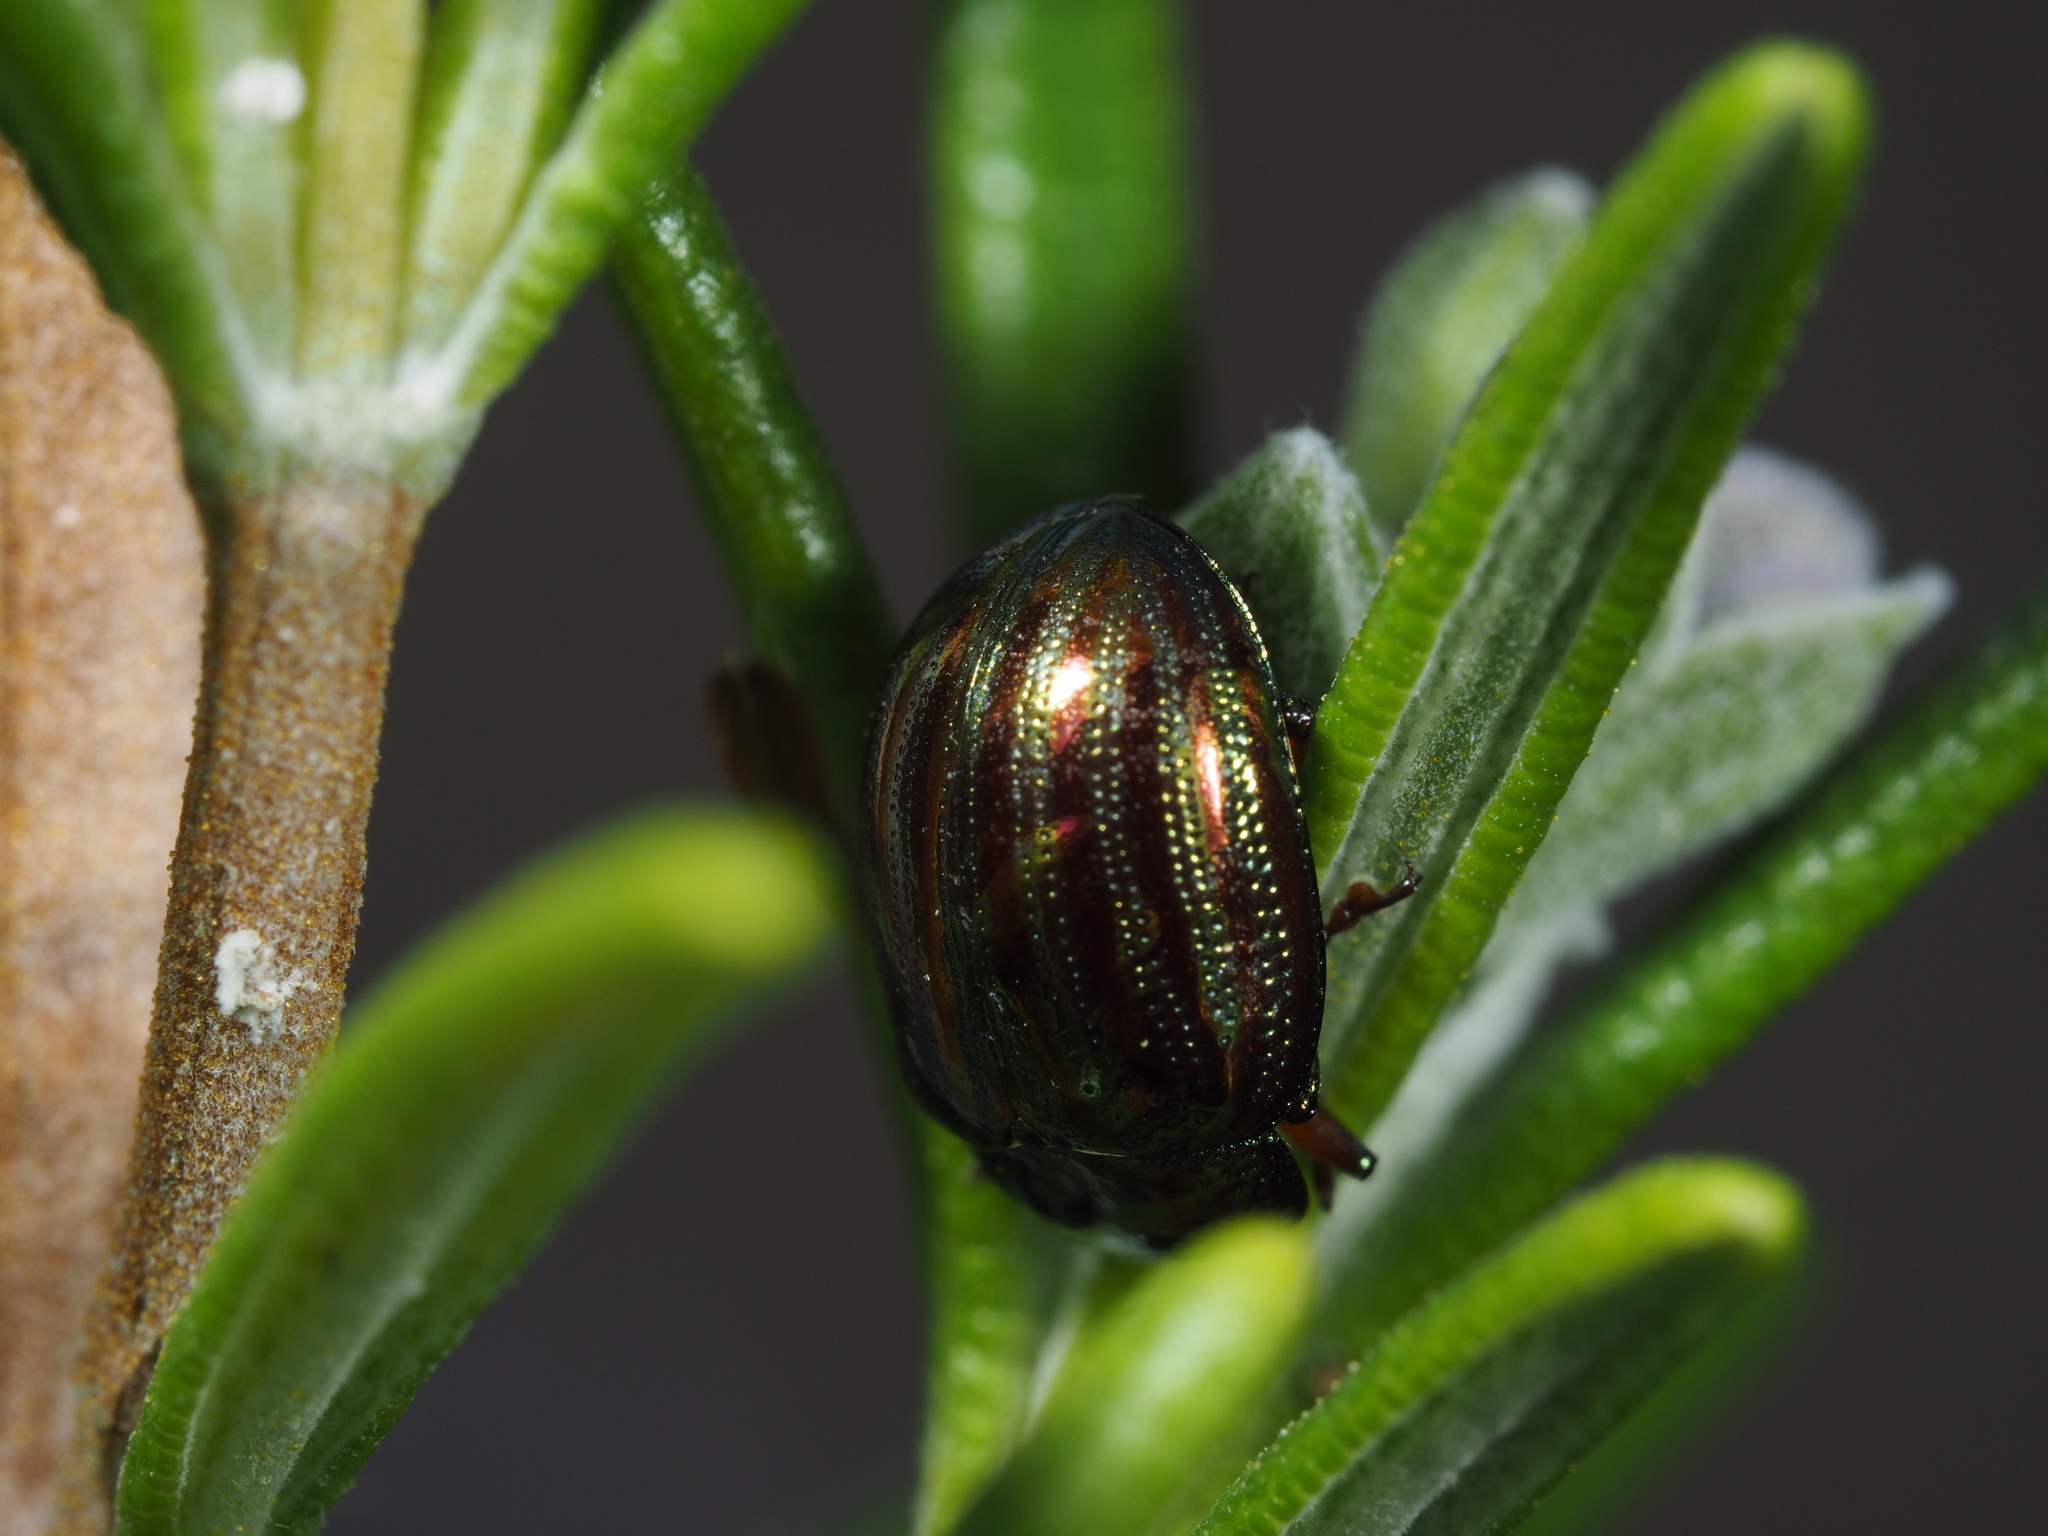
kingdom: Animalia
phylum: Arthropoda
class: Insecta
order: Coleoptera
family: Chrysomelidae
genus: Chrysolina
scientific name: Chrysolina americana
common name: Rosemary beetle
